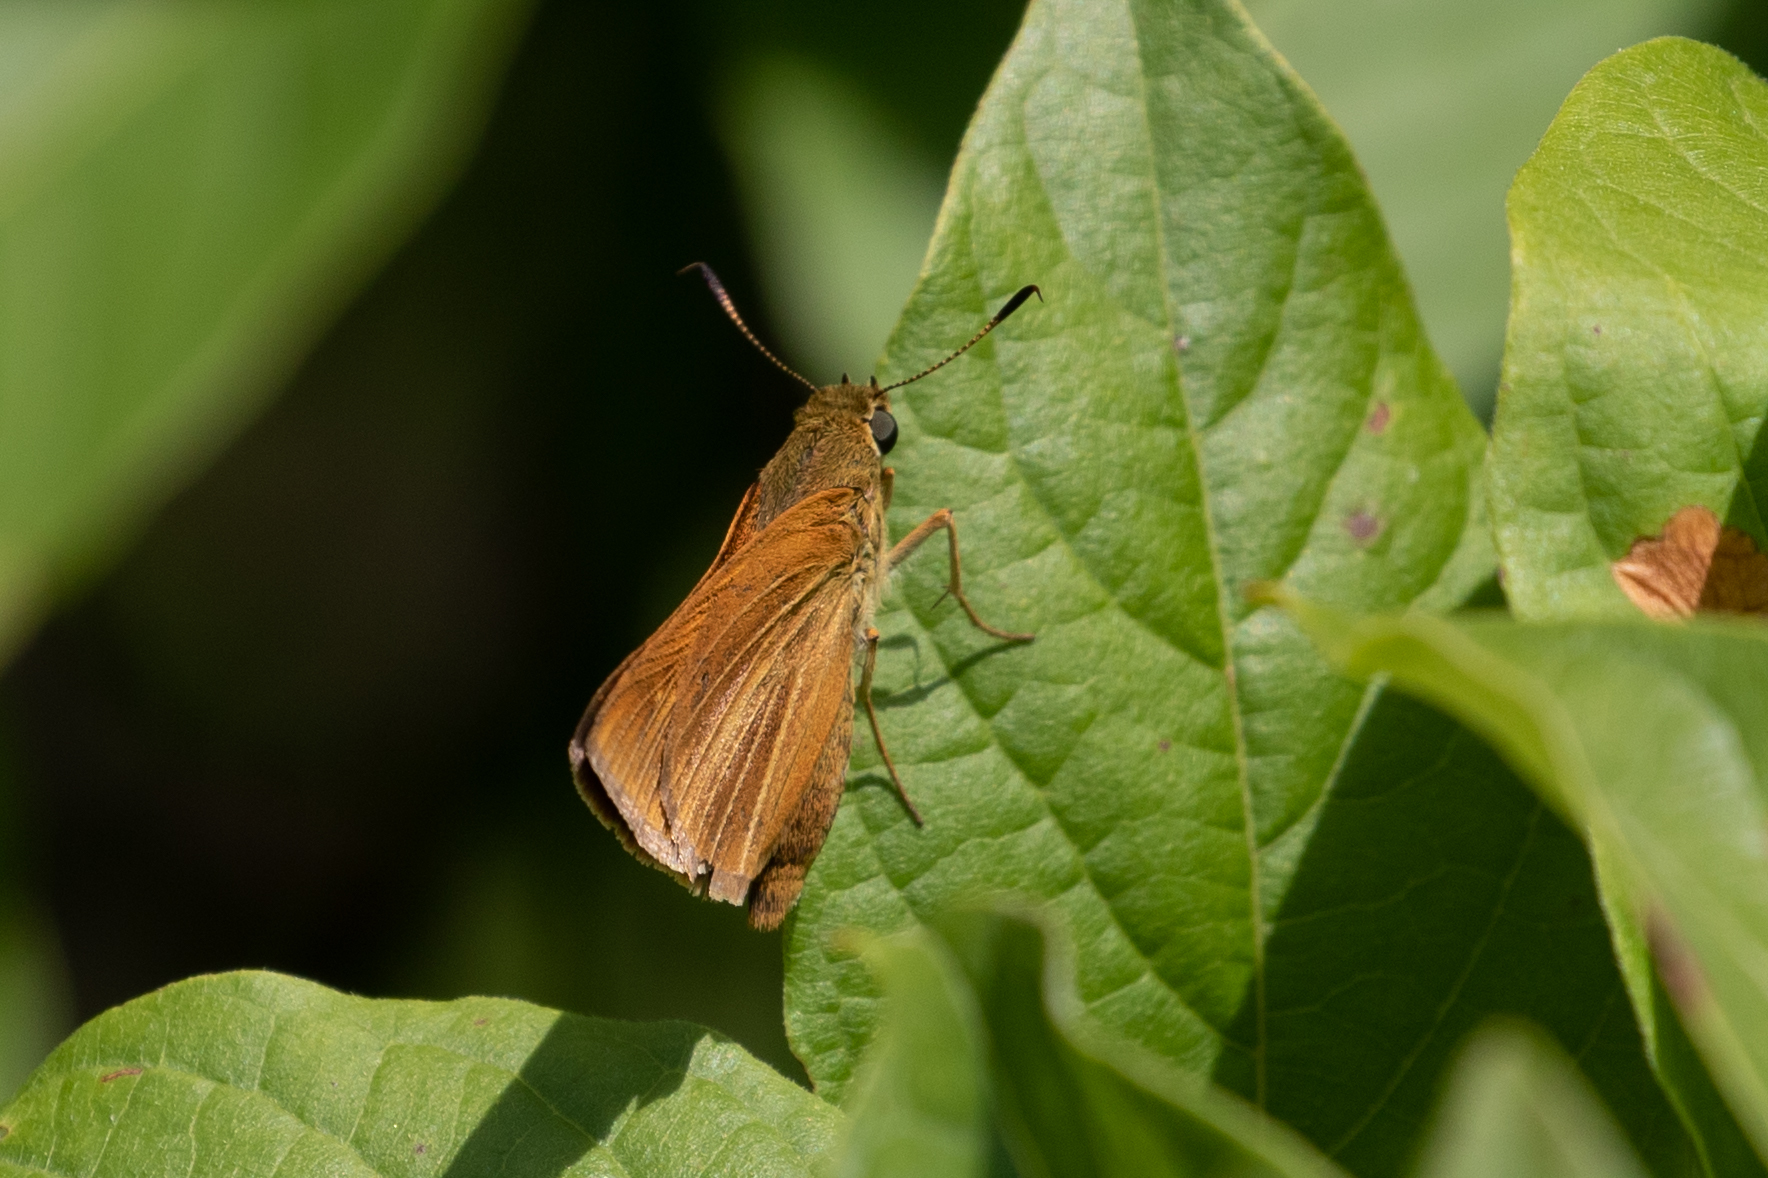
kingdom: Animalia
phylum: Arthropoda
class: Insecta
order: Lepidoptera
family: Hesperiidae
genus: Euphyes
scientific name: Euphyes dion
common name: Dion skipper
